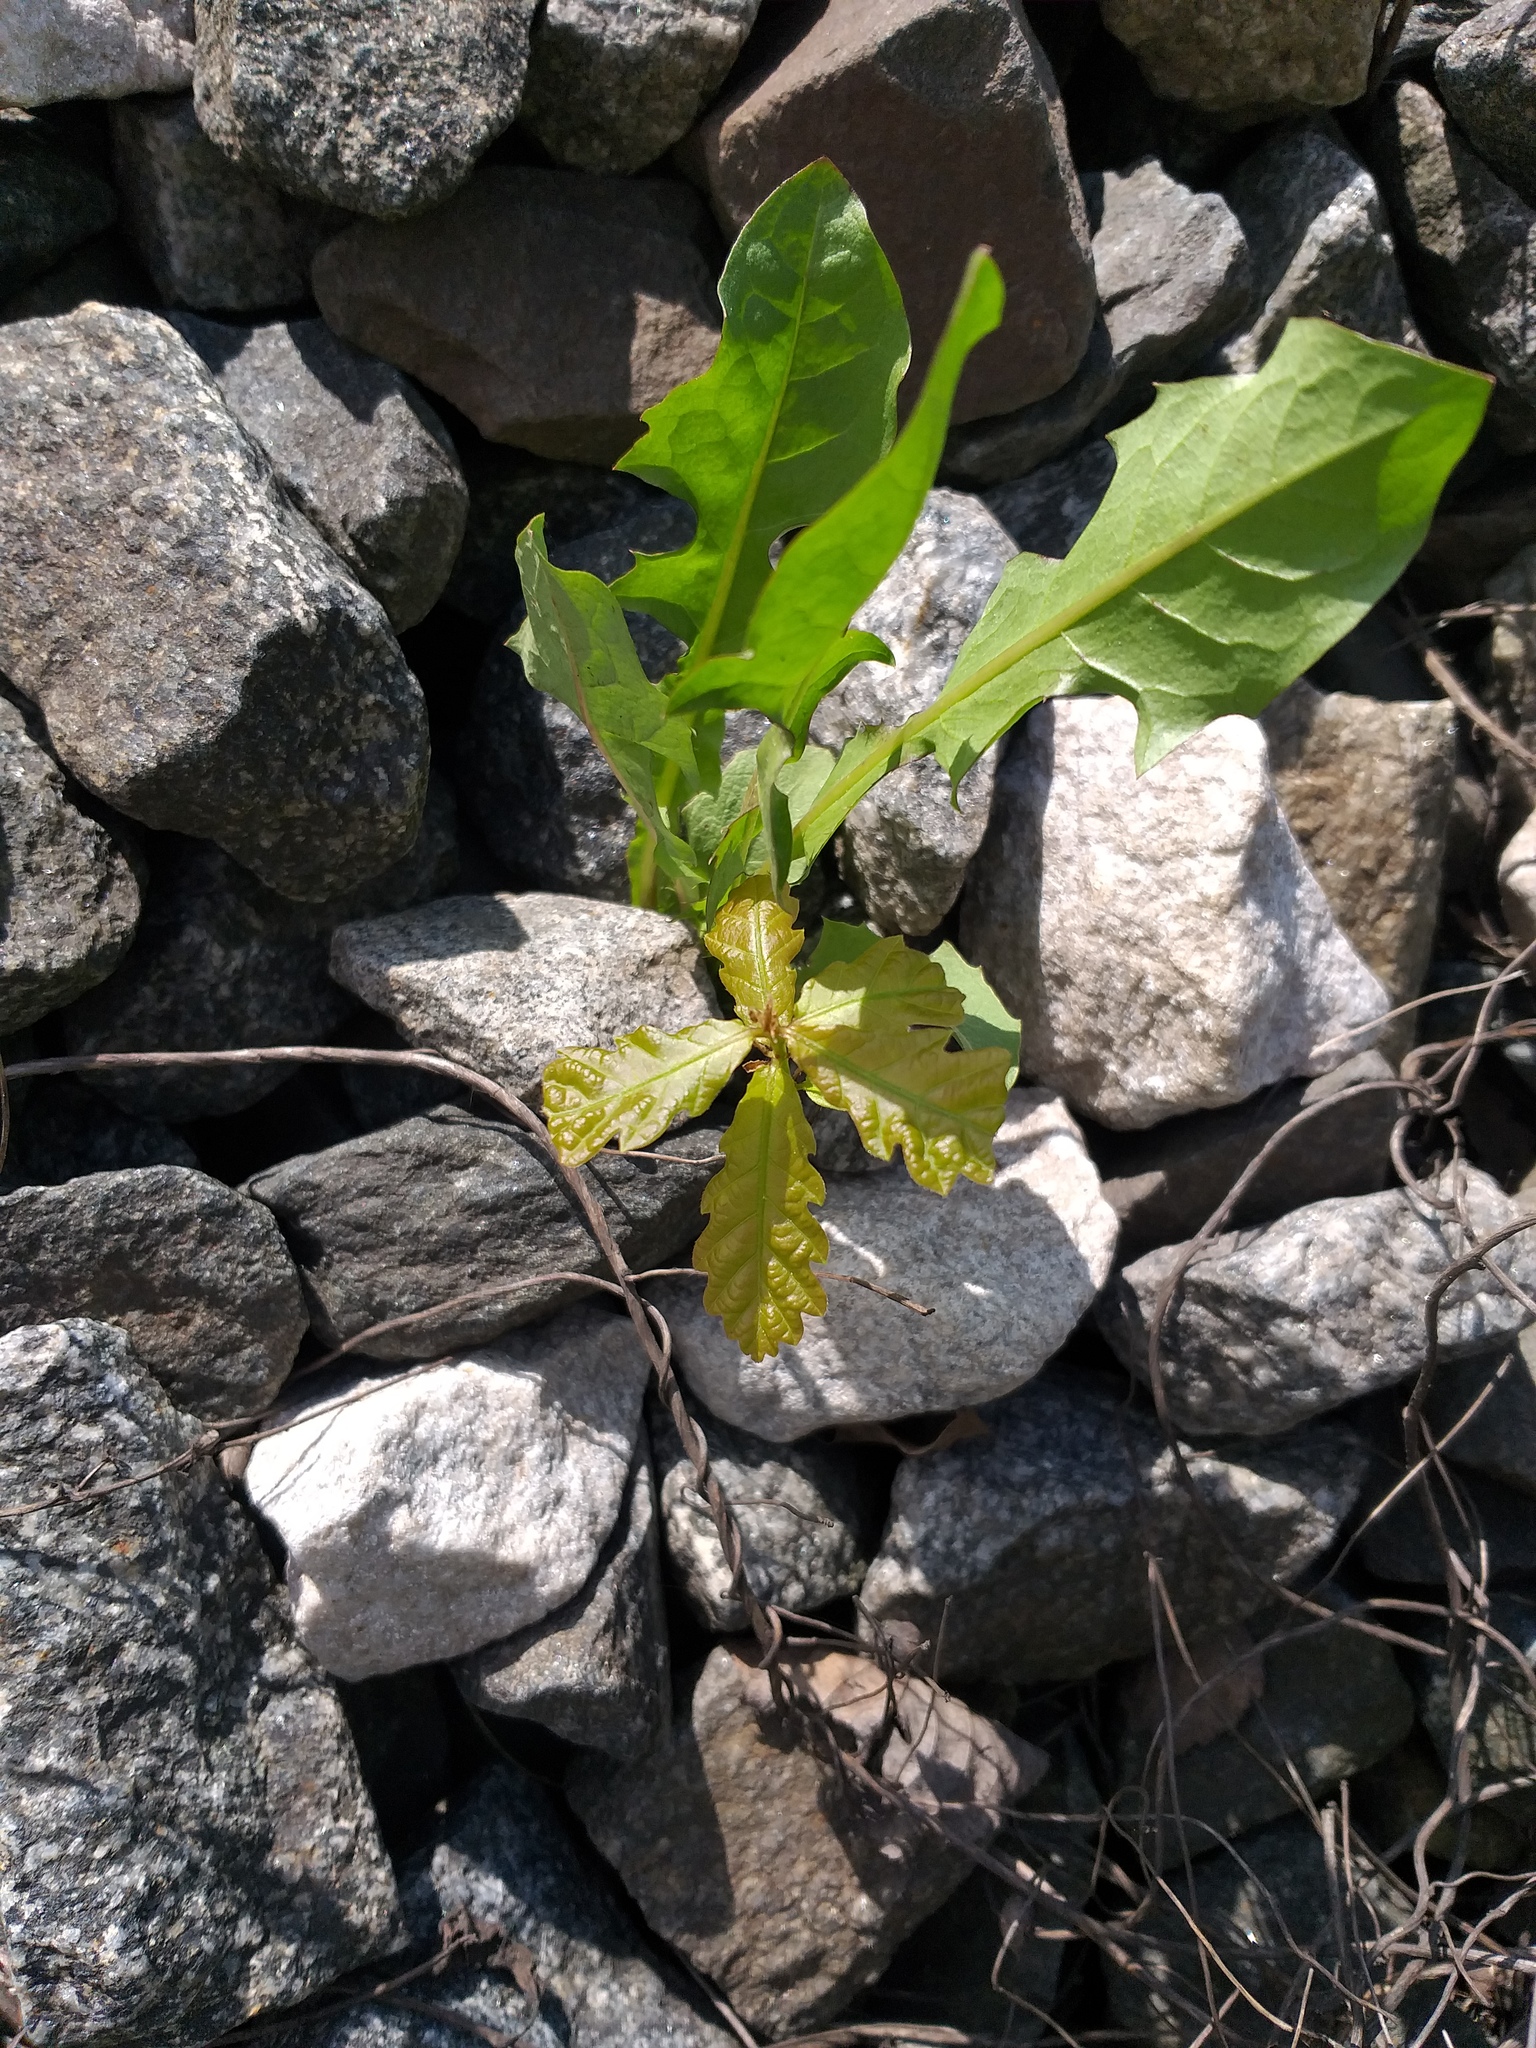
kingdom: Plantae
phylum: Tracheophyta
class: Magnoliopsida
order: Fagales
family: Fagaceae
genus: Quercus
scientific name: Quercus robur
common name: Pedunculate oak
